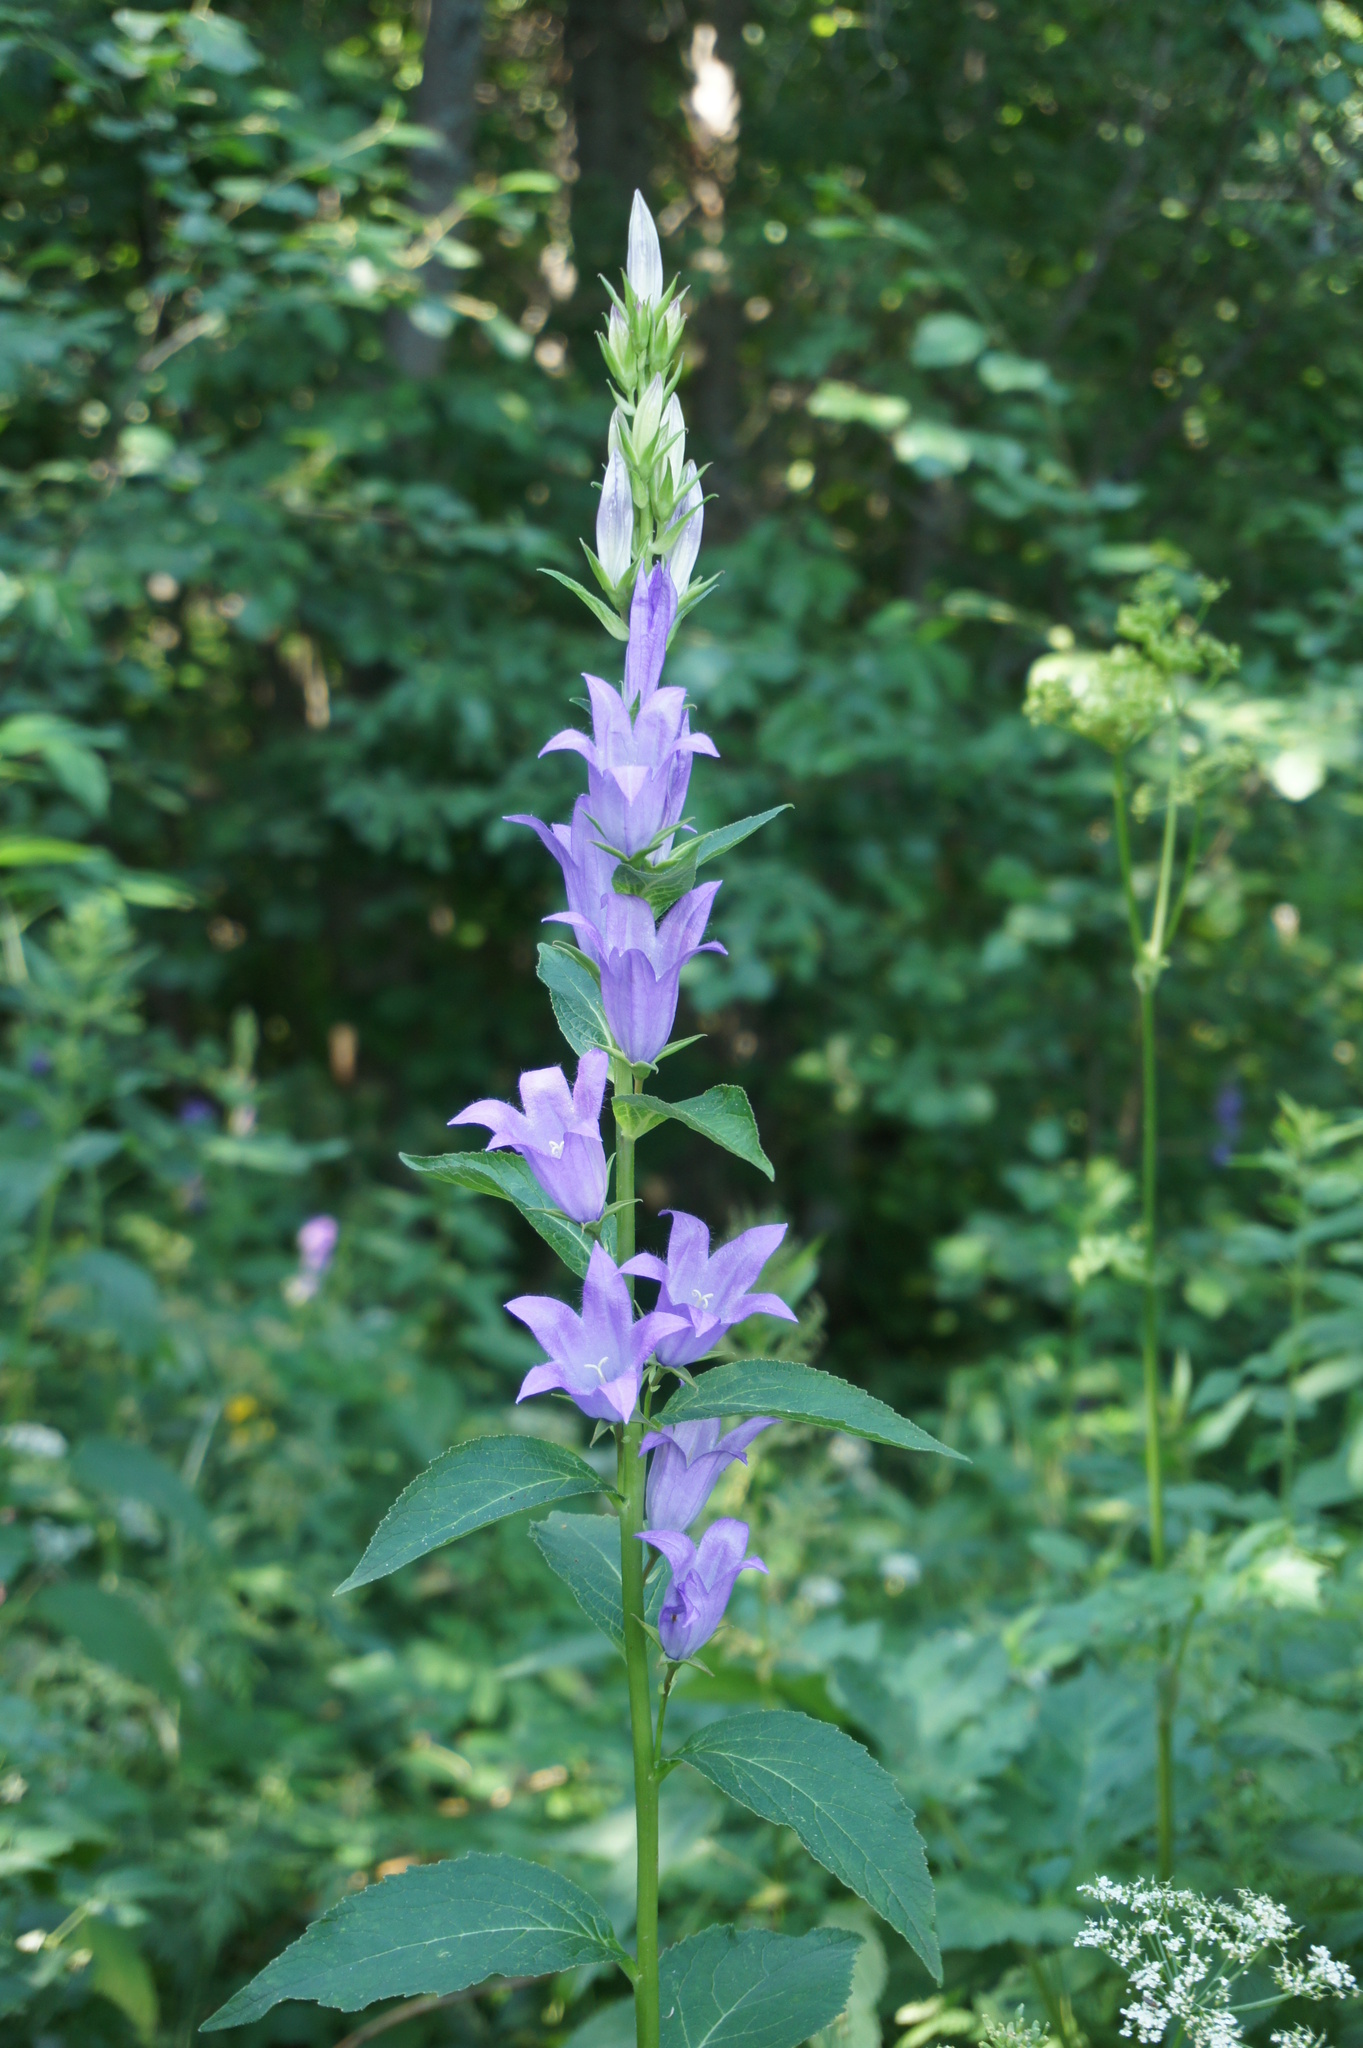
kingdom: Plantae
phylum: Tracheophyta
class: Magnoliopsida
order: Asterales
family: Campanulaceae
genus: Campanula
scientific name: Campanula latifolia
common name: Giant bellflower
